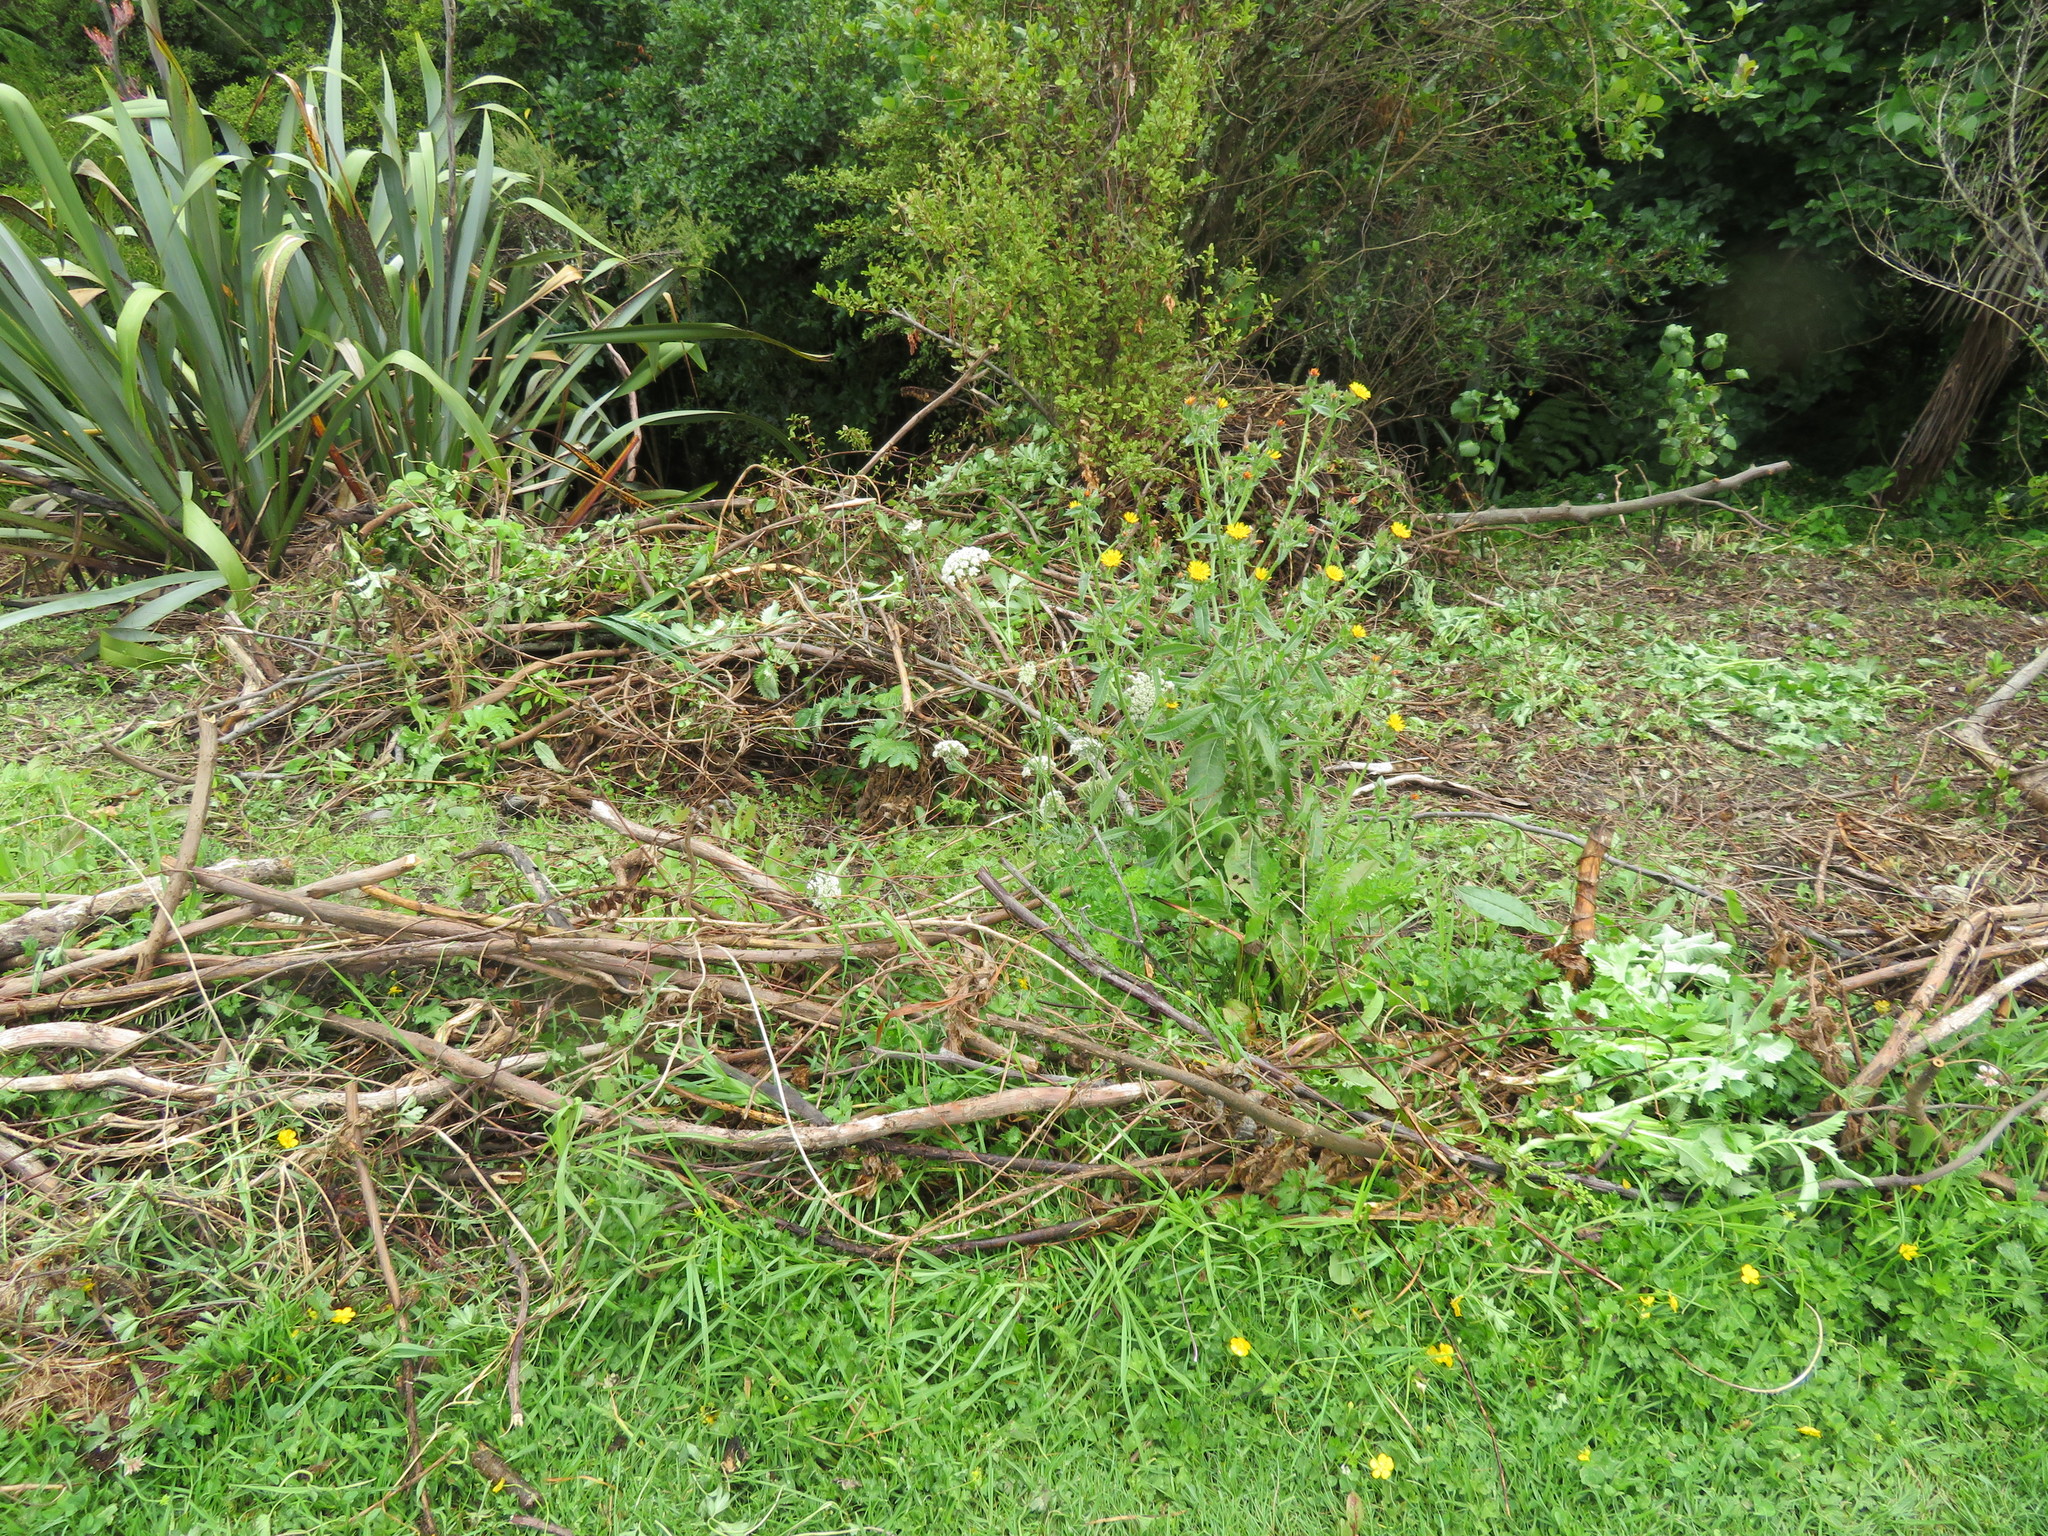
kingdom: Plantae
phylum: Tracheophyta
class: Liliopsida
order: Poales
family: Poaceae
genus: Cenchrus
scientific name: Cenchrus clandestinus
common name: Kikuyugrass
